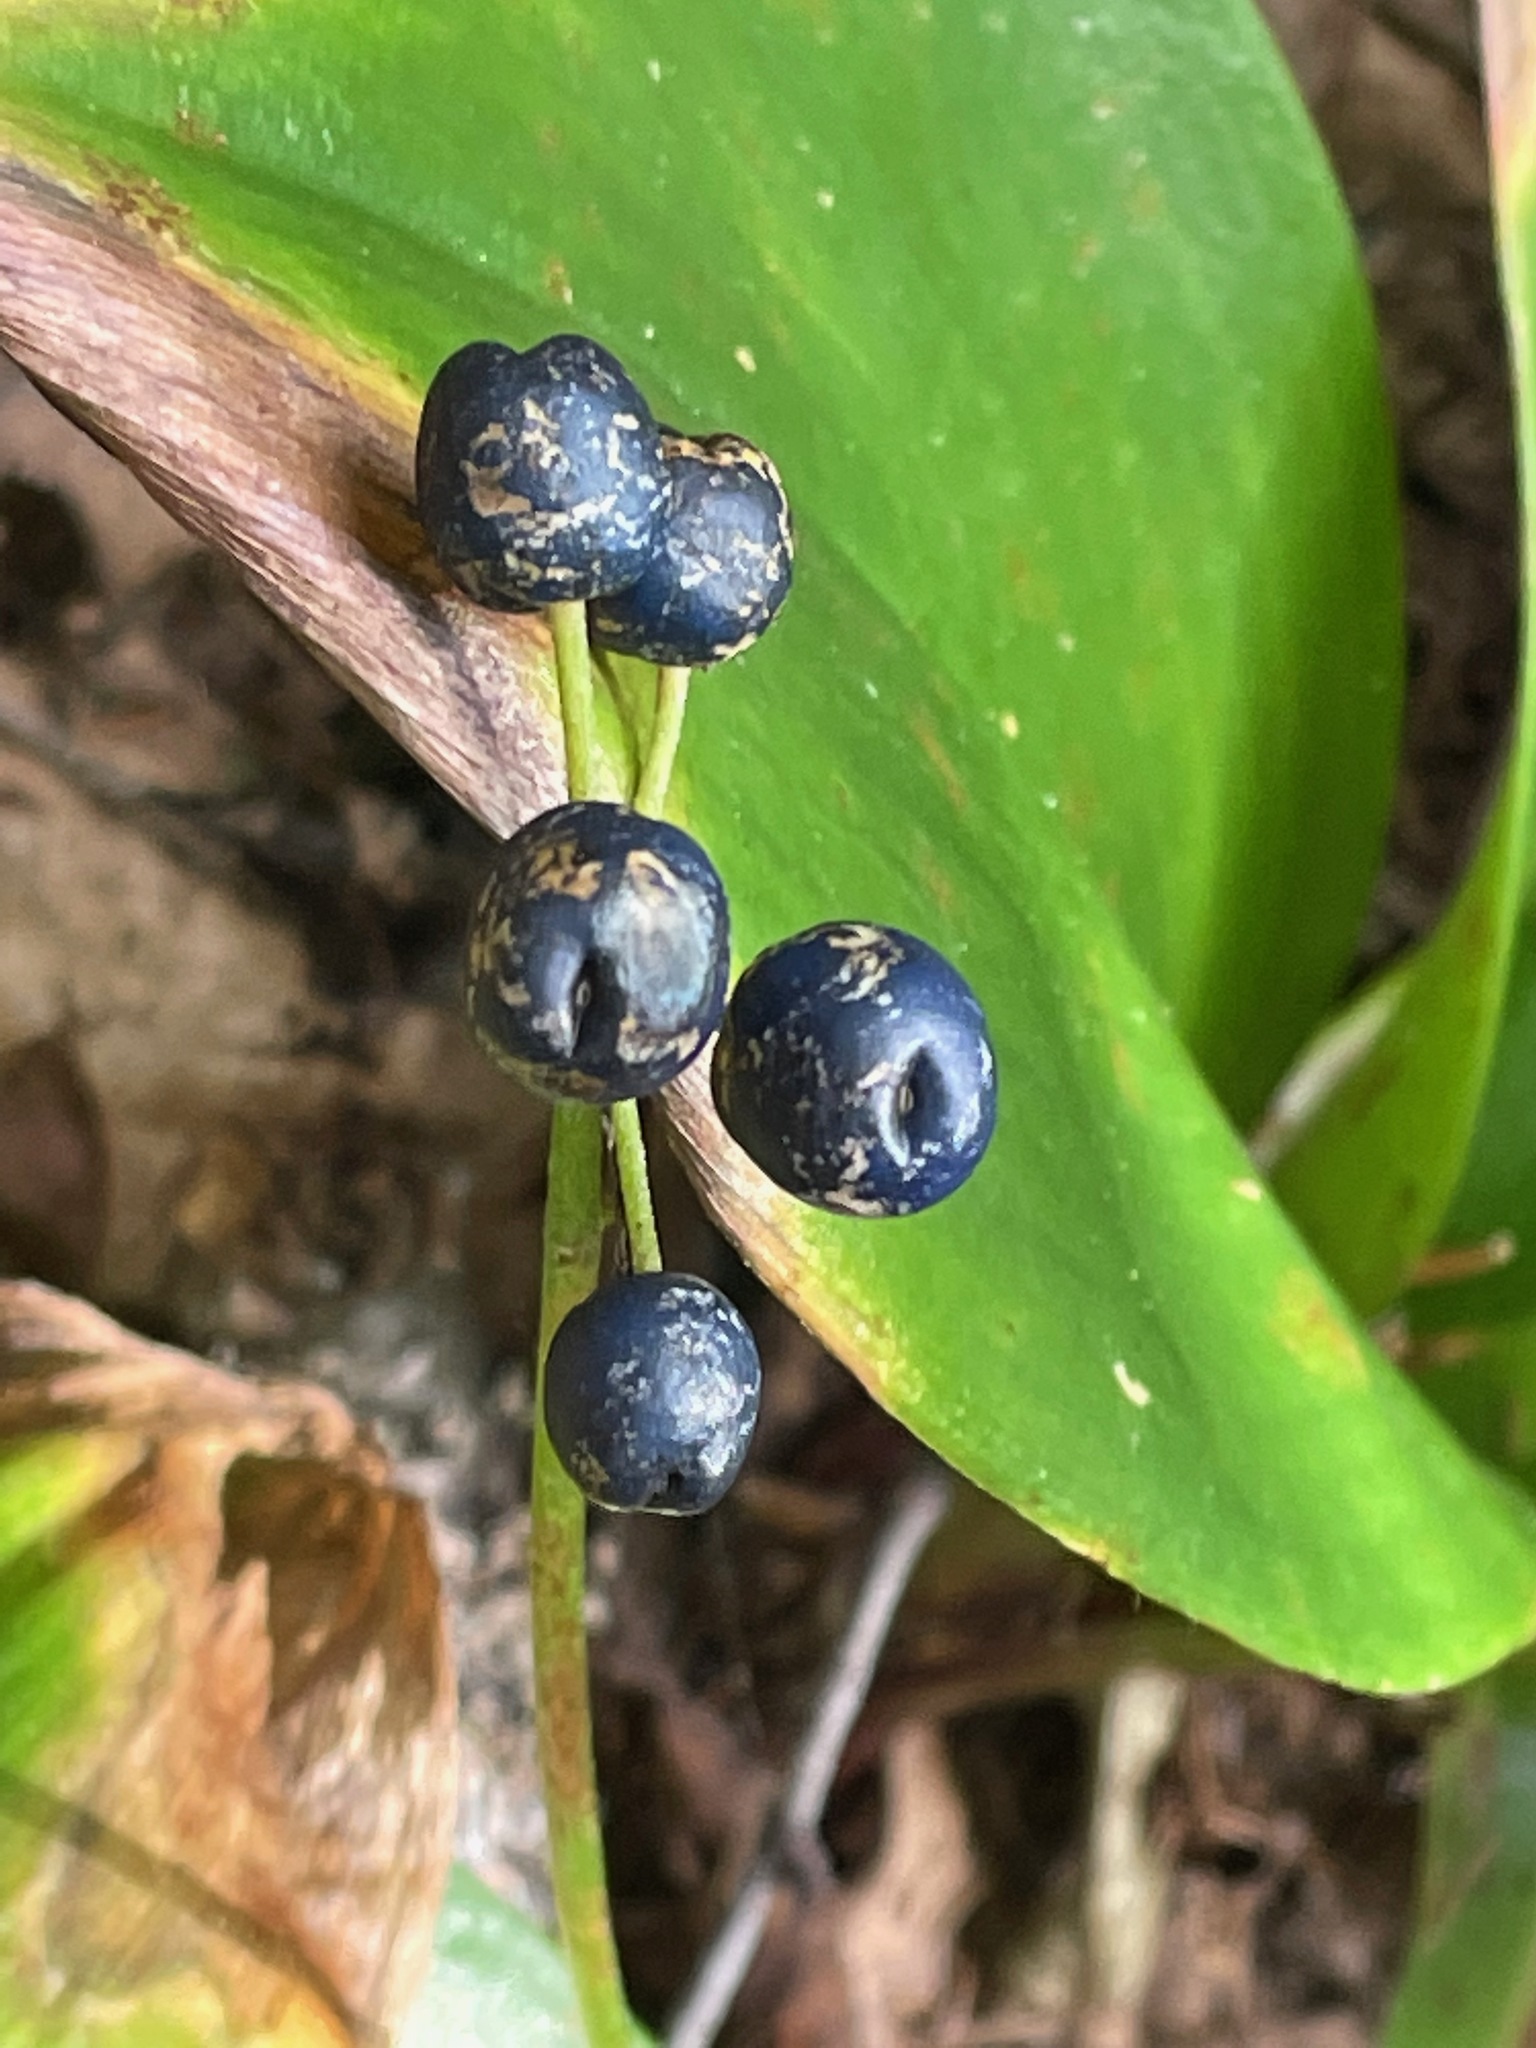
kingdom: Plantae
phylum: Tracheophyta
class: Liliopsida
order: Liliales
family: Liliaceae
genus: Clintonia
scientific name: Clintonia borealis
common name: Yellow clintonia
